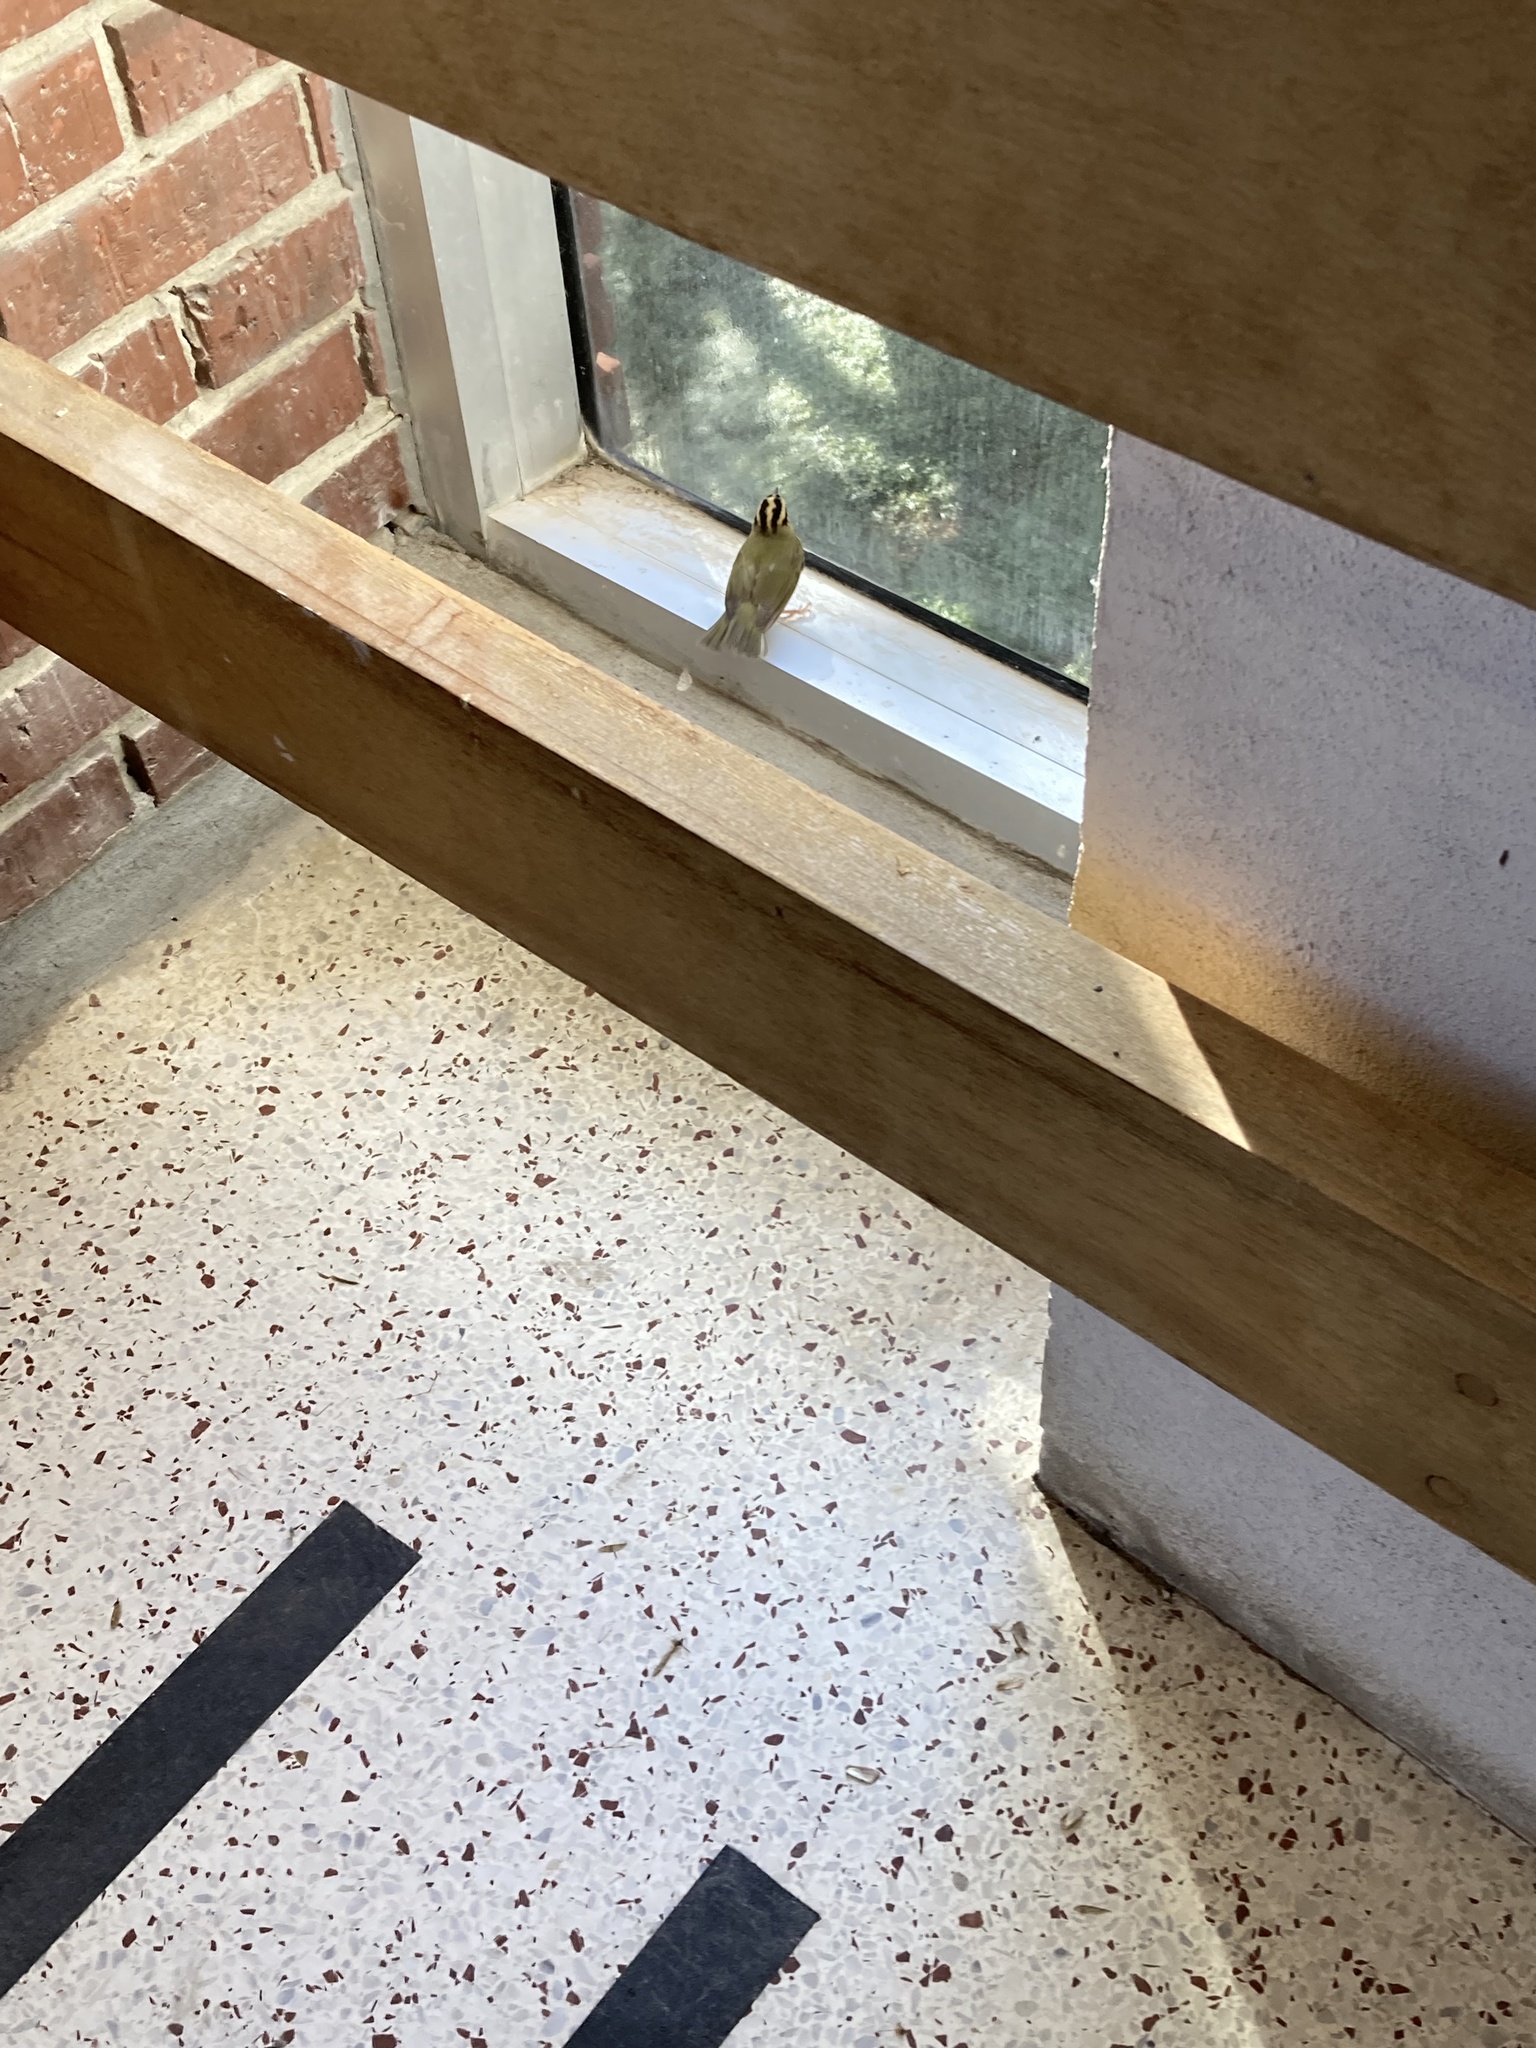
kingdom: Animalia
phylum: Chordata
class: Aves
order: Passeriformes
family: Parulidae
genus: Helmitheros
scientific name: Helmitheros vermivorum
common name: Worm-eating warbler
